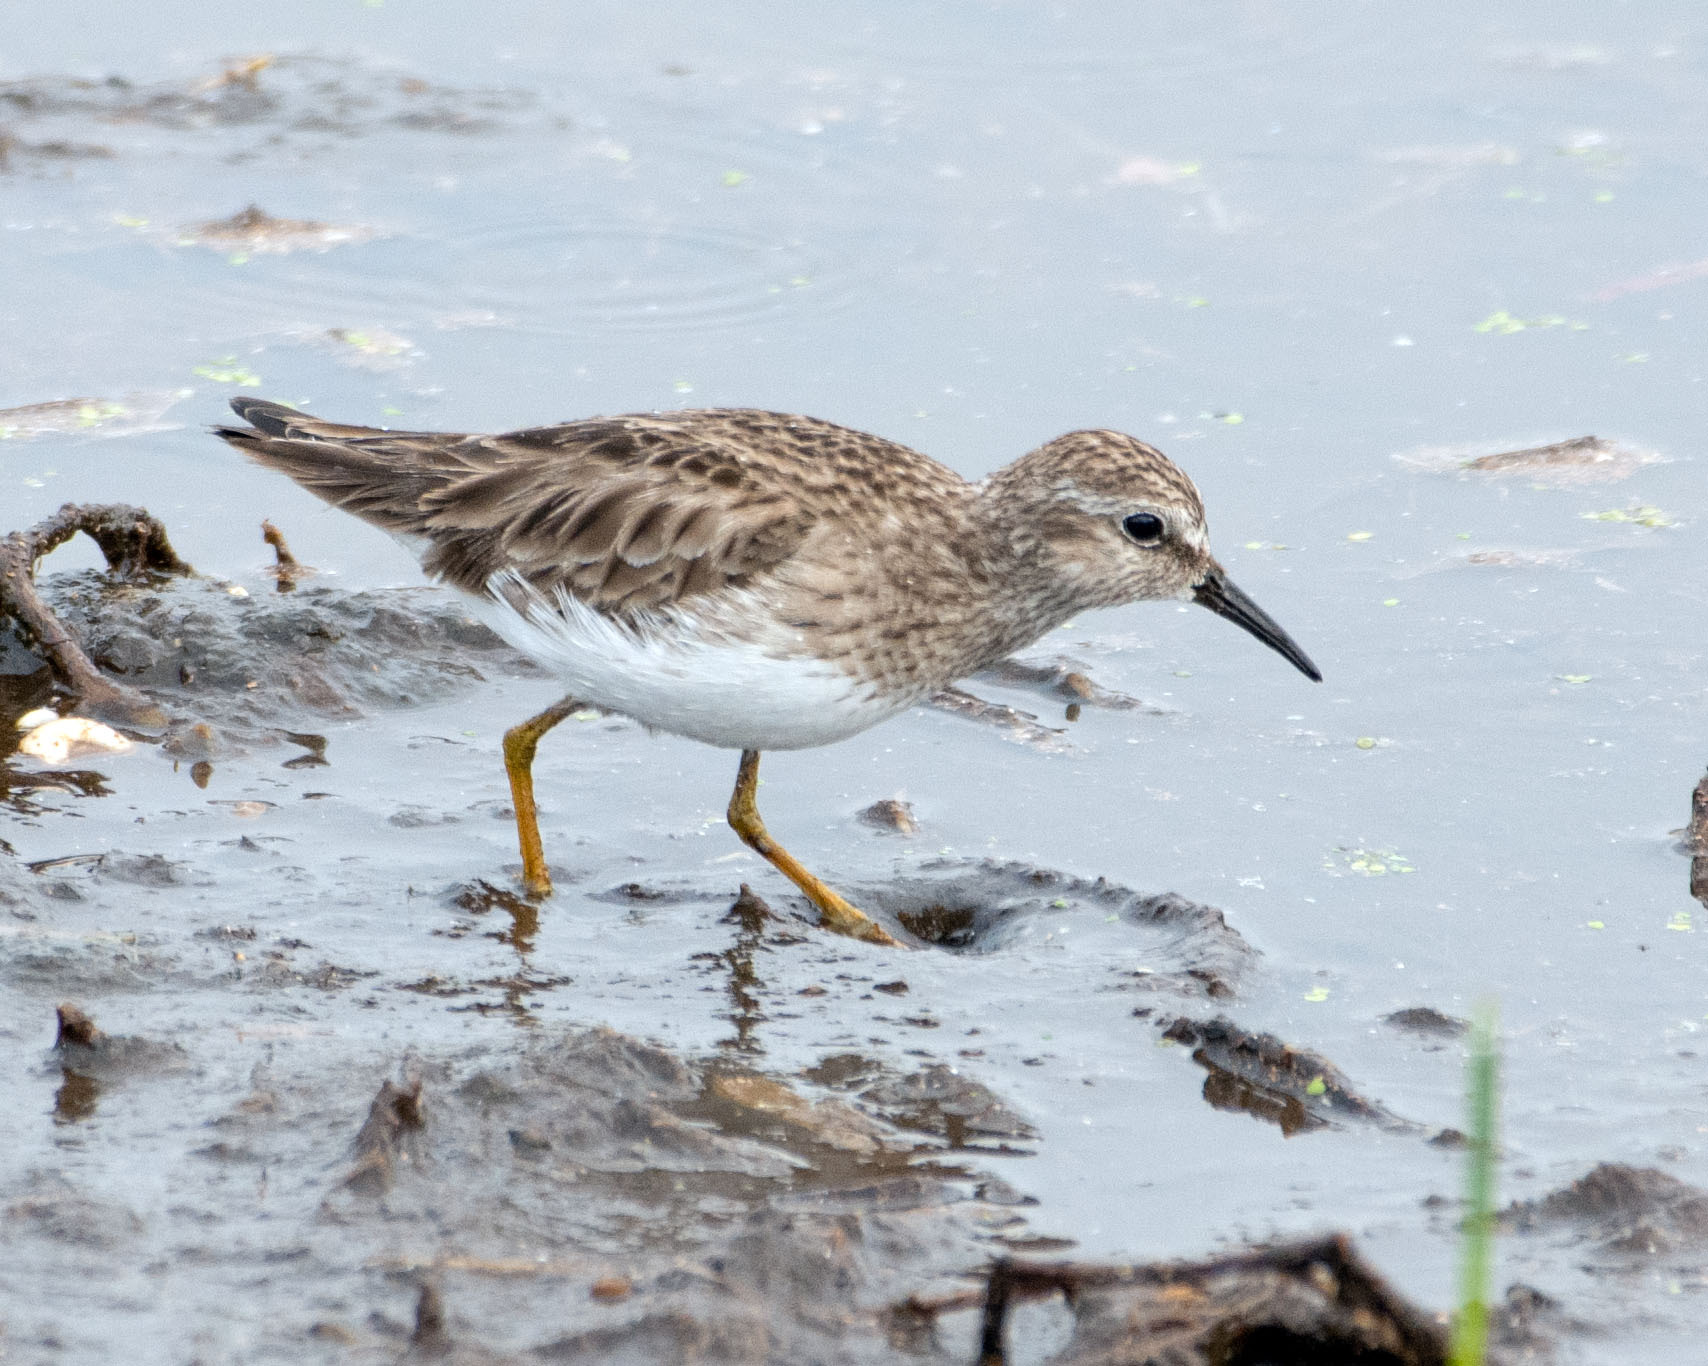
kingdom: Animalia
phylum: Chordata
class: Aves
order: Charadriiformes
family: Scolopacidae
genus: Calidris
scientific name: Calidris minutilla
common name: Least sandpiper
